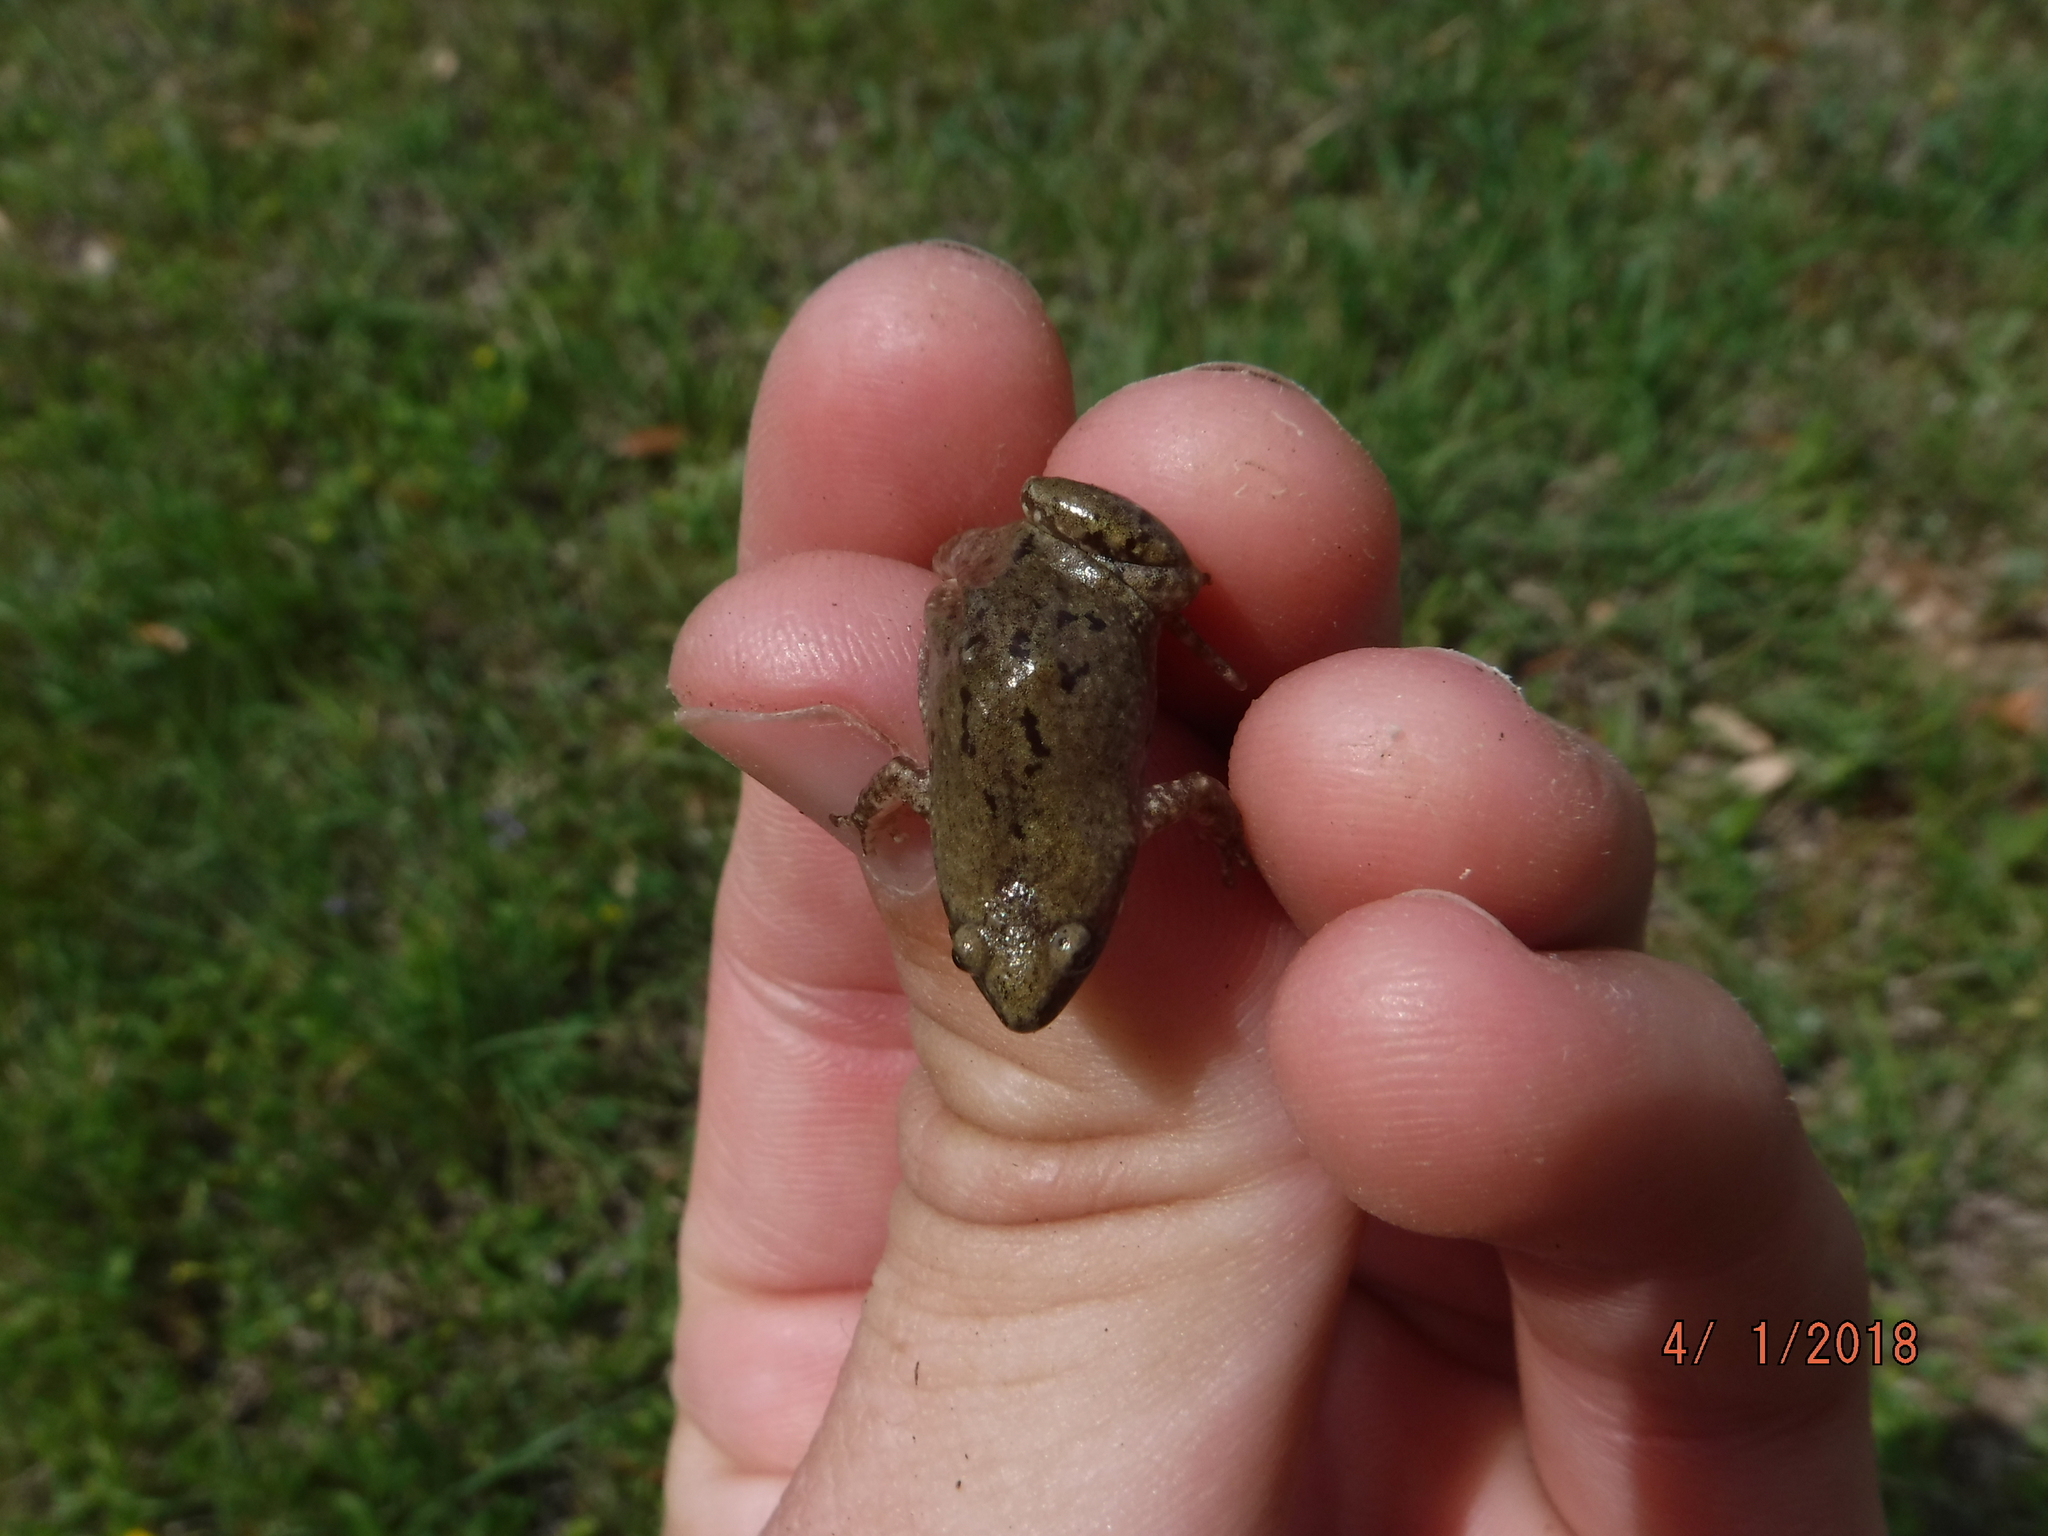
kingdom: Animalia
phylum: Chordata
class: Amphibia
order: Anura
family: Microhylidae
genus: Gastrophryne
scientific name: Gastrophryne olivacea
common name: Great plains narrow-mouthed toad
